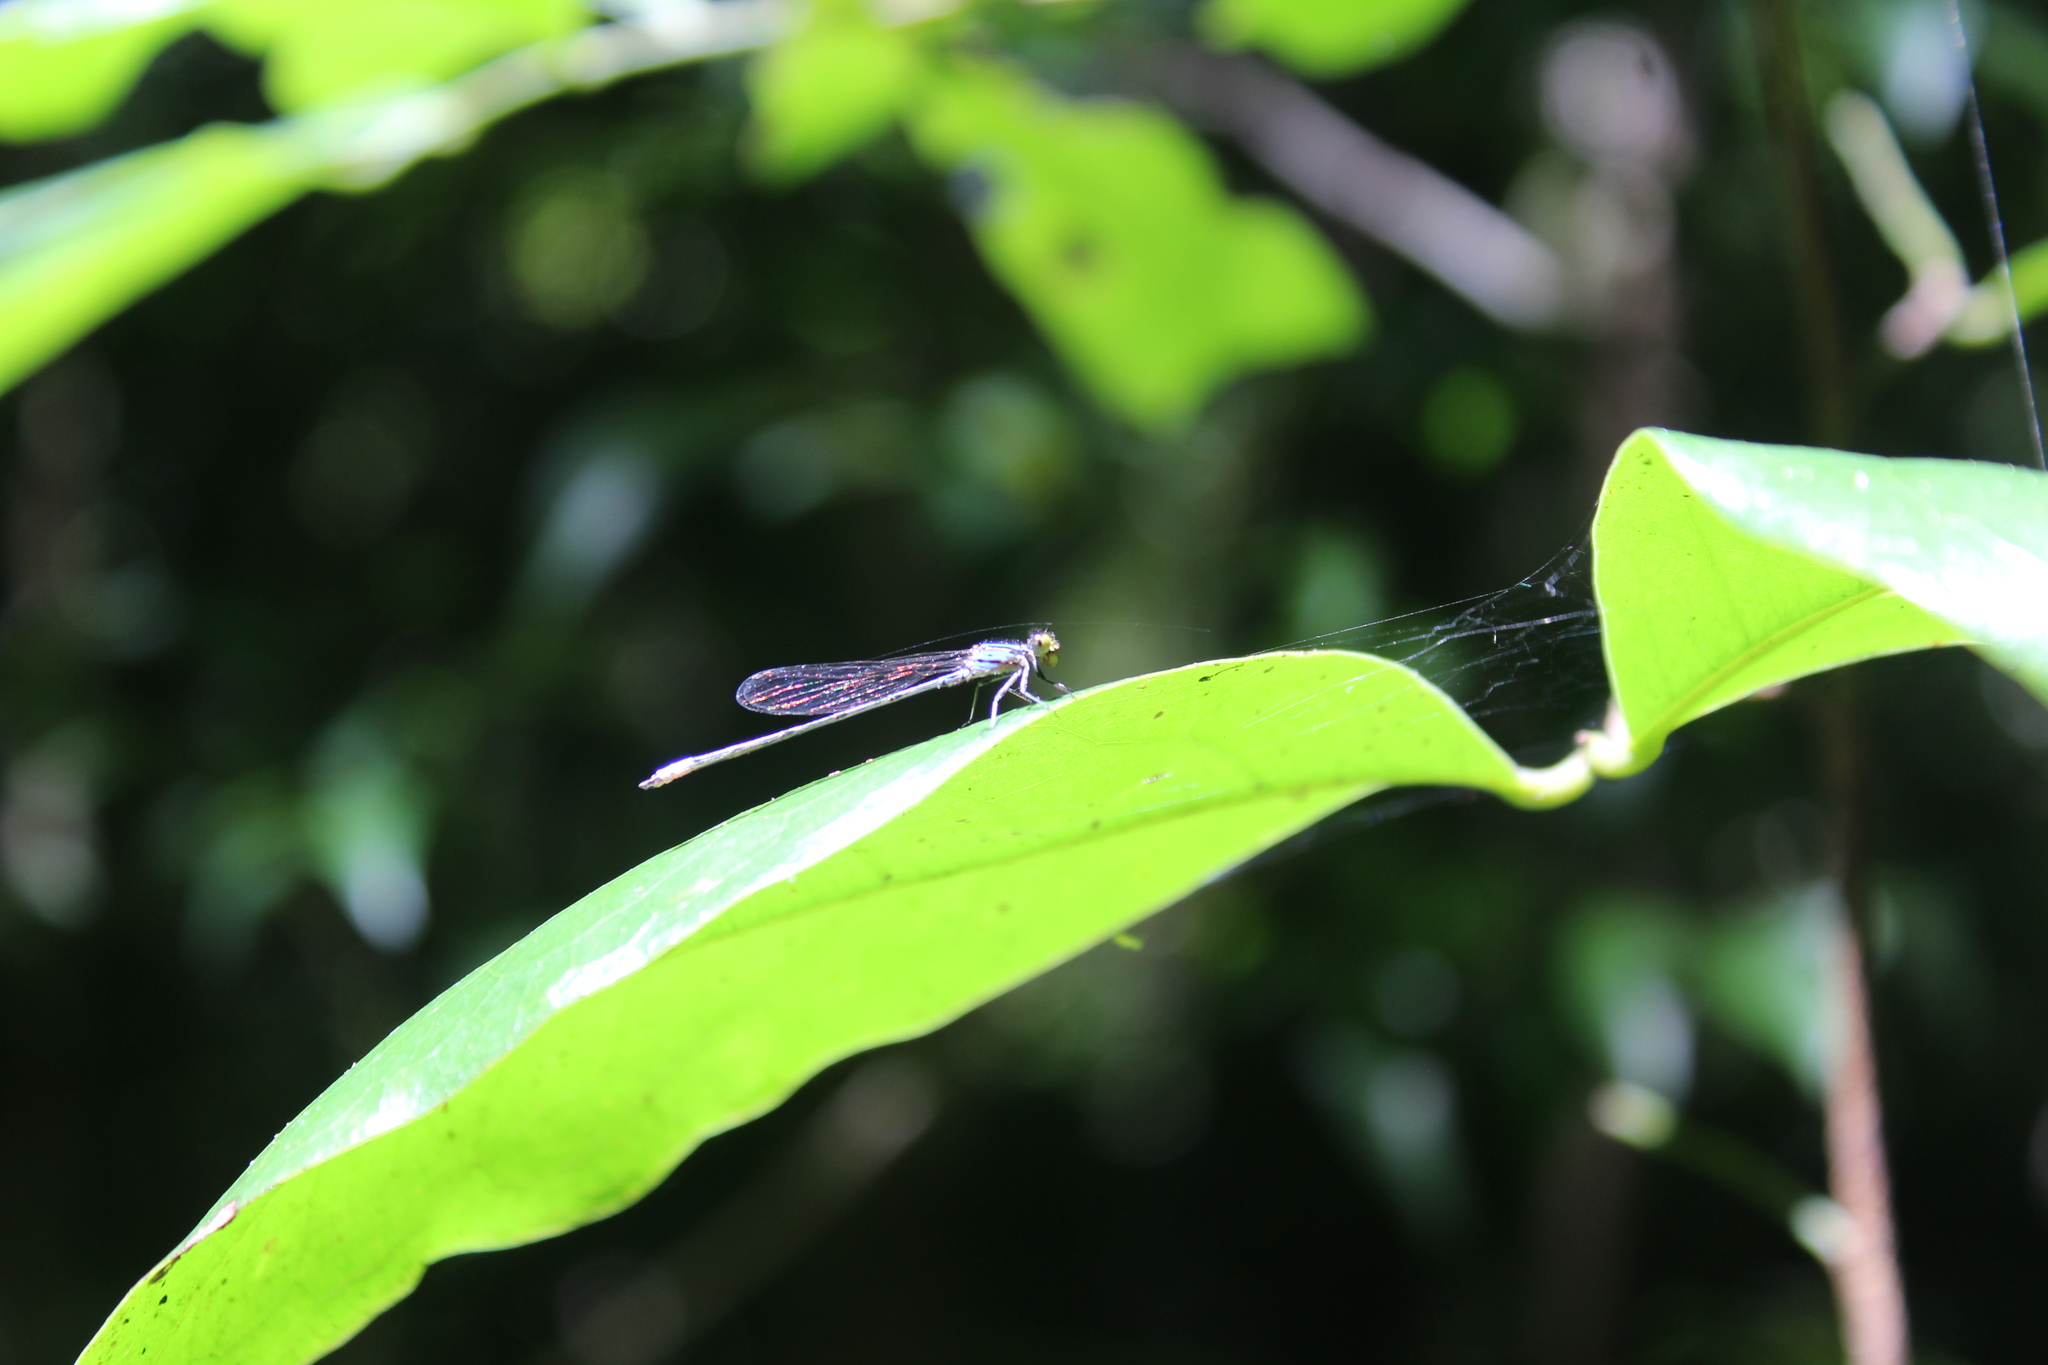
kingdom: Animalia
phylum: Arthropoda
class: Insecta
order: Odonata
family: Coenagrionidae
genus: Neoerythromma
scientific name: Neoerythromma cultellatum
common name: Caribbean yellowface
